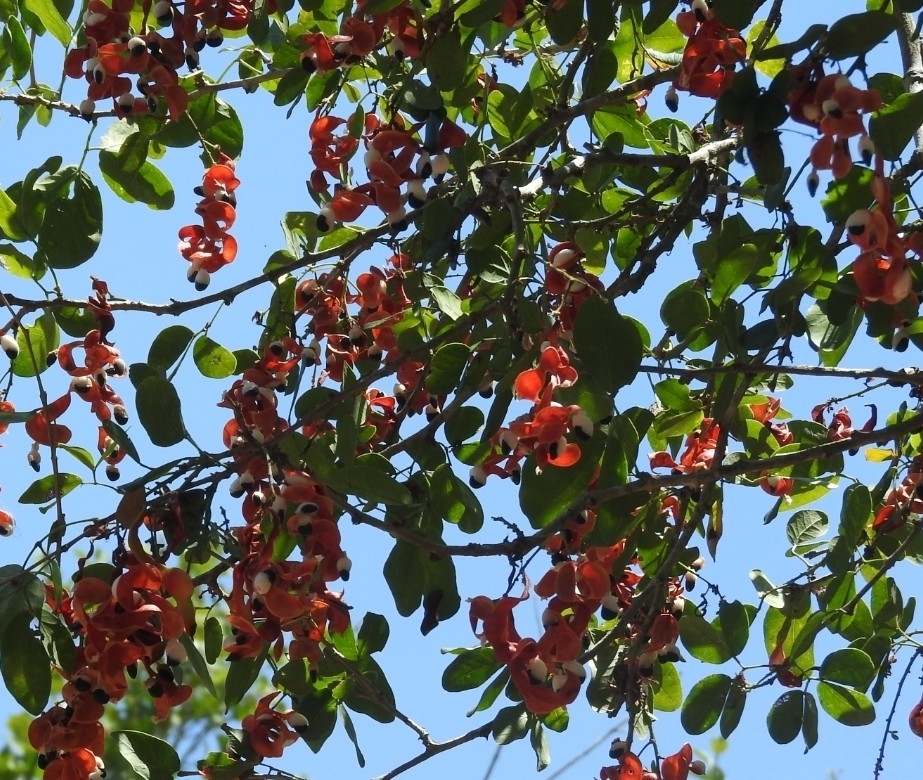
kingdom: Plantae
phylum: Tracheophyta
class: Magnoliopsida
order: Fabales
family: Fabaceae
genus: Pithecellobium
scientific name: Pithecellobium dulce
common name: Monkeypod
